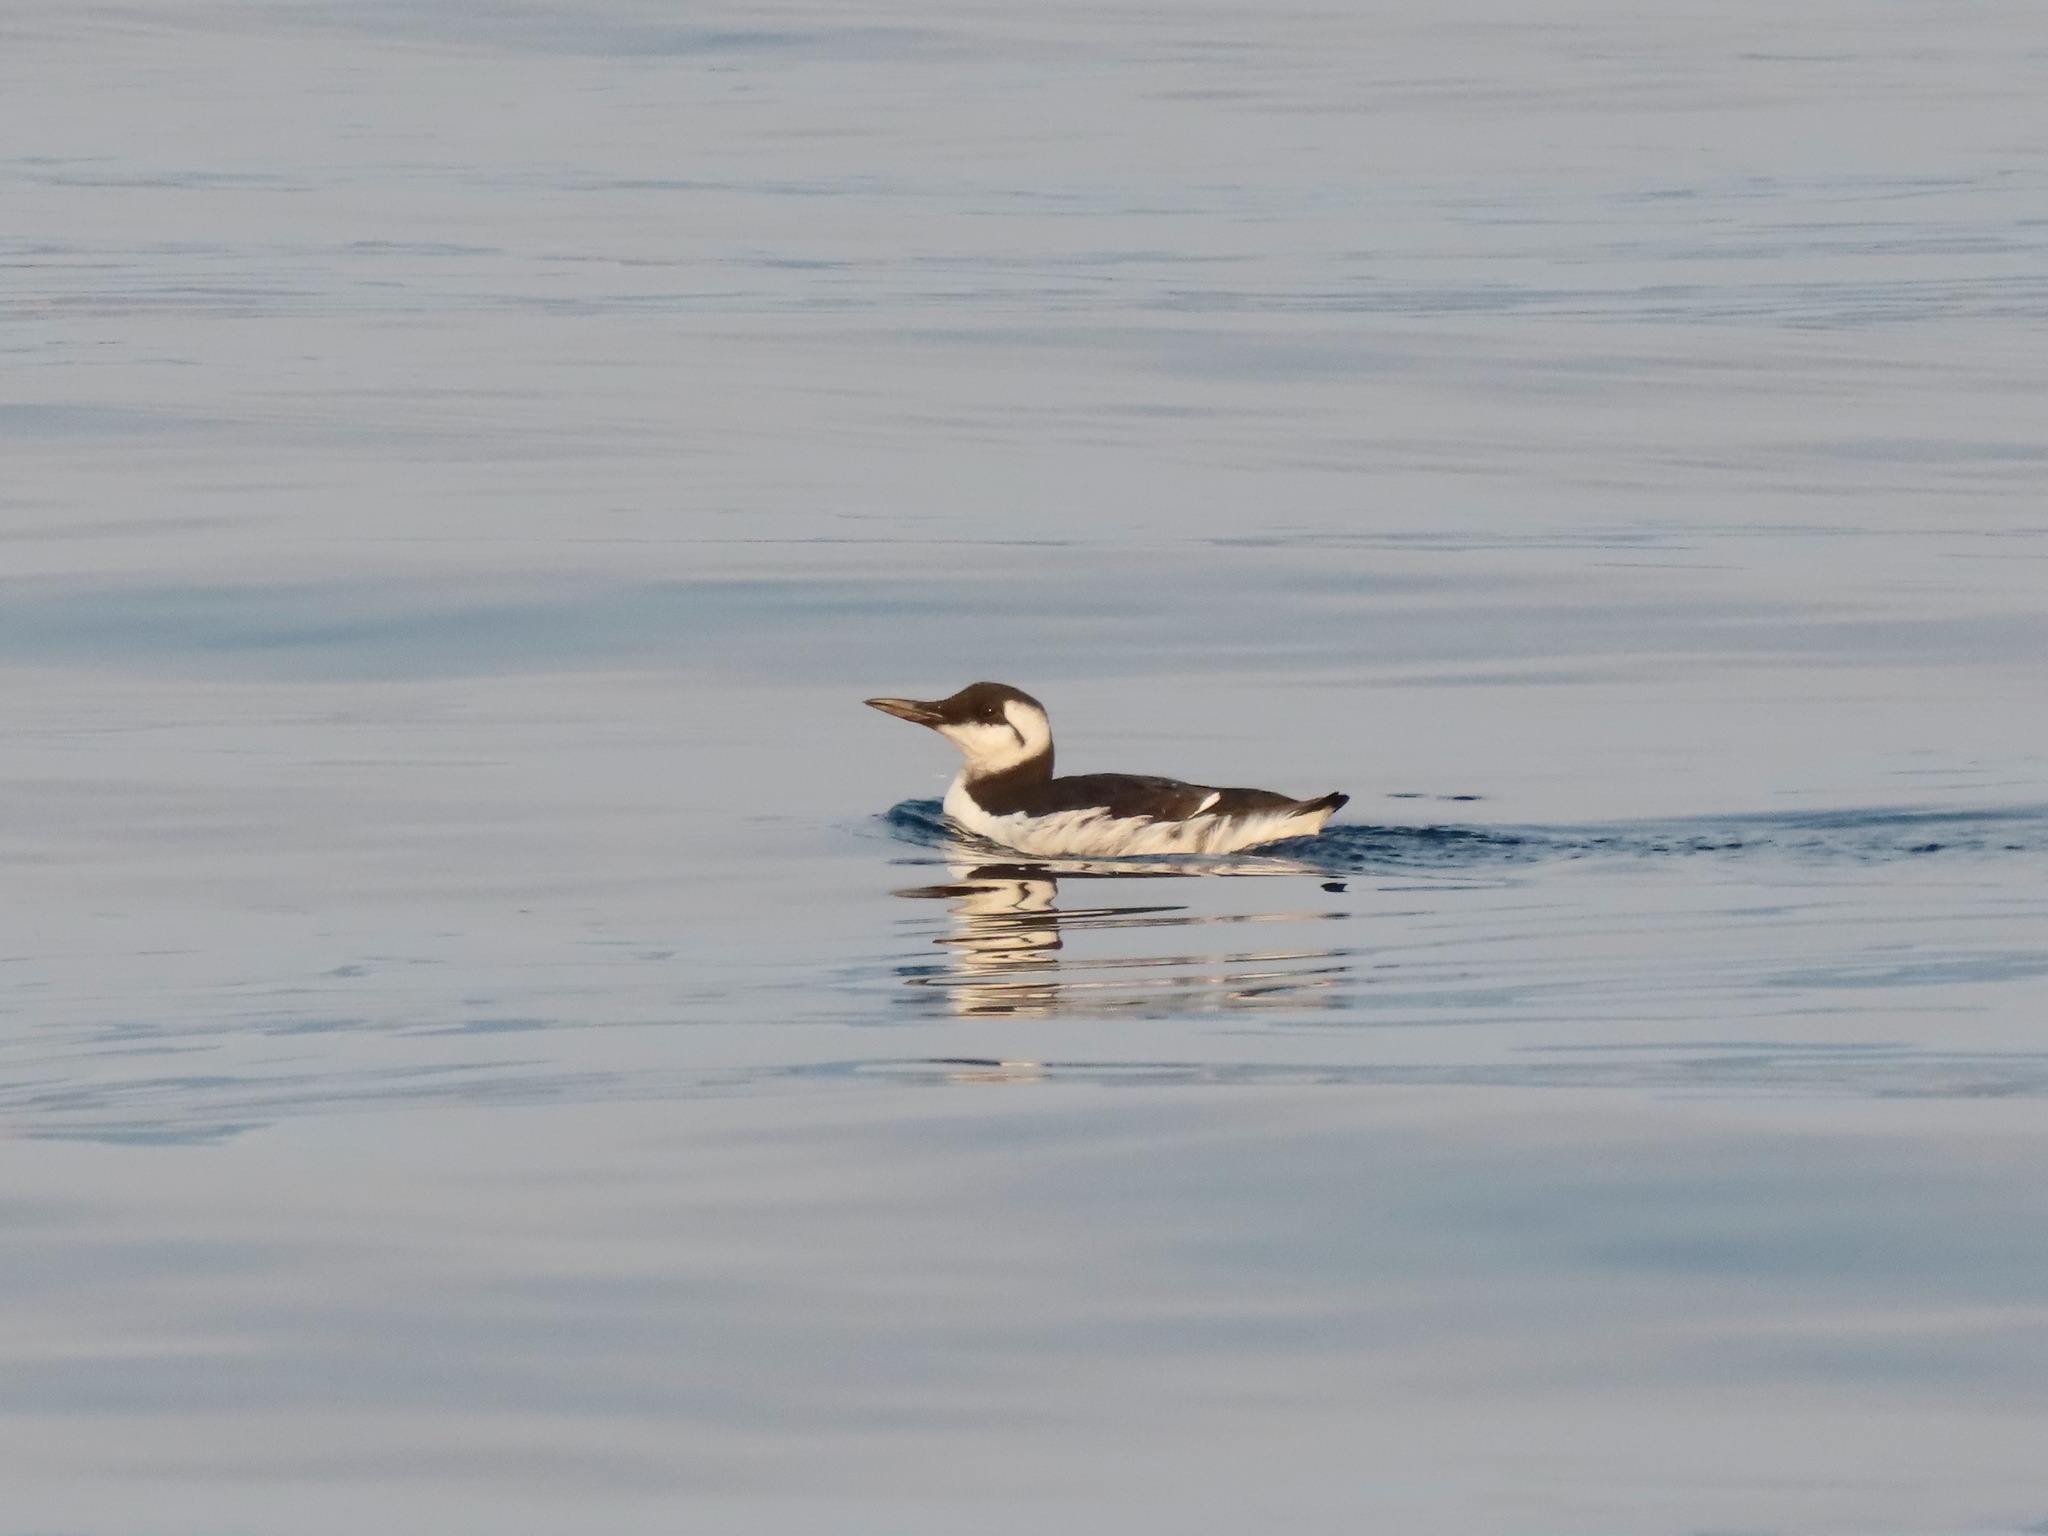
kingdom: Animalia
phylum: Chordata
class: Aves
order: Charadriiformes
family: Alcidae
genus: Uria
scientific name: Uria aalge
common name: Common murre
